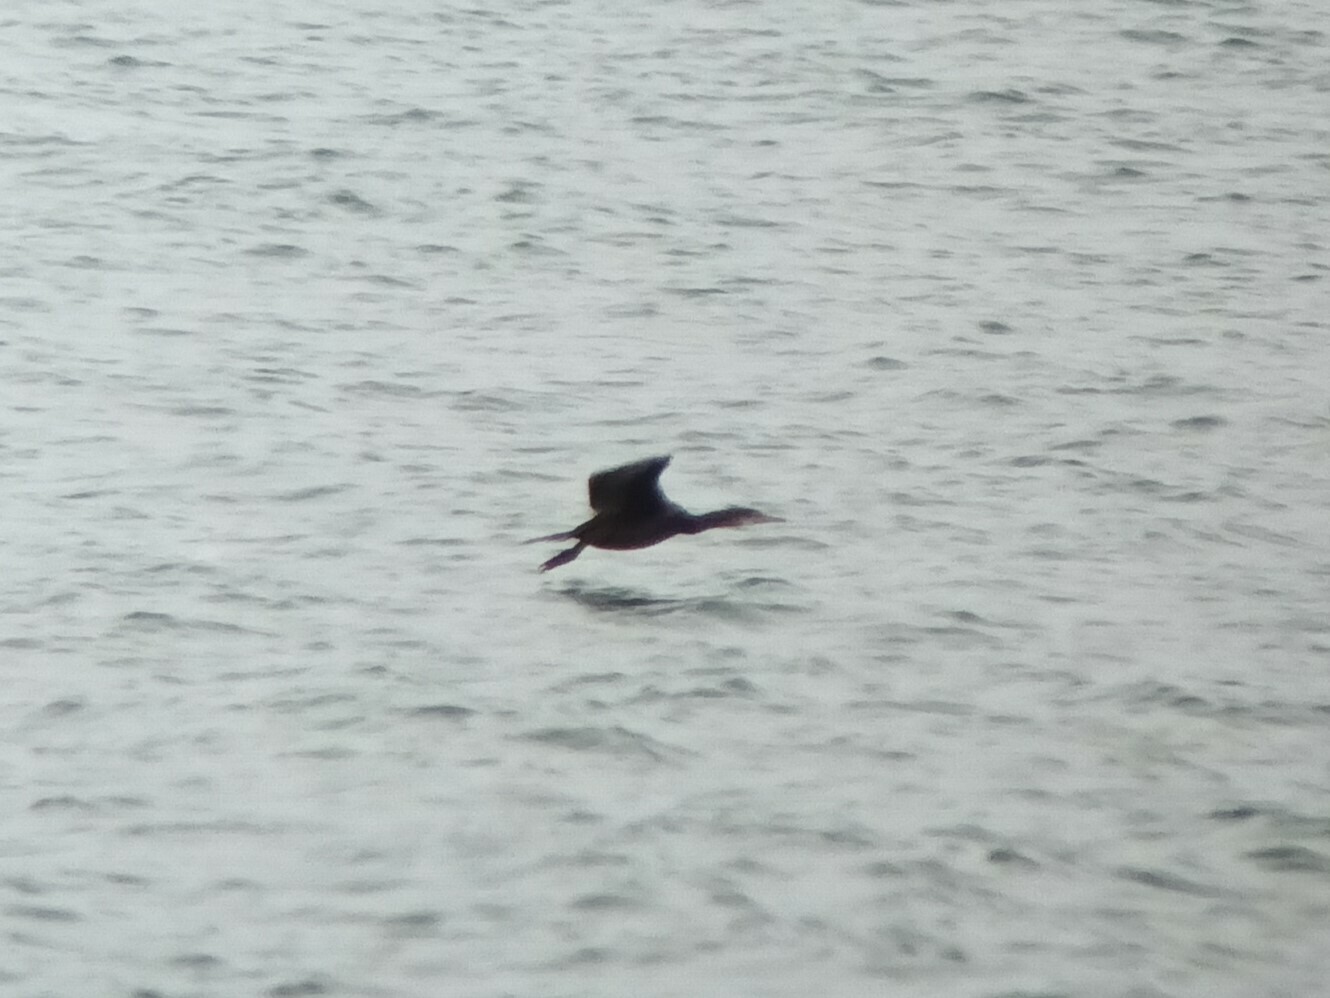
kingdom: Animalia
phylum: Chordata
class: Aves
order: Suliformes
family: Phalacrocoracidae
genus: Phalacrocorax
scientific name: Phalacrocorax aristotelis
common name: European shag
